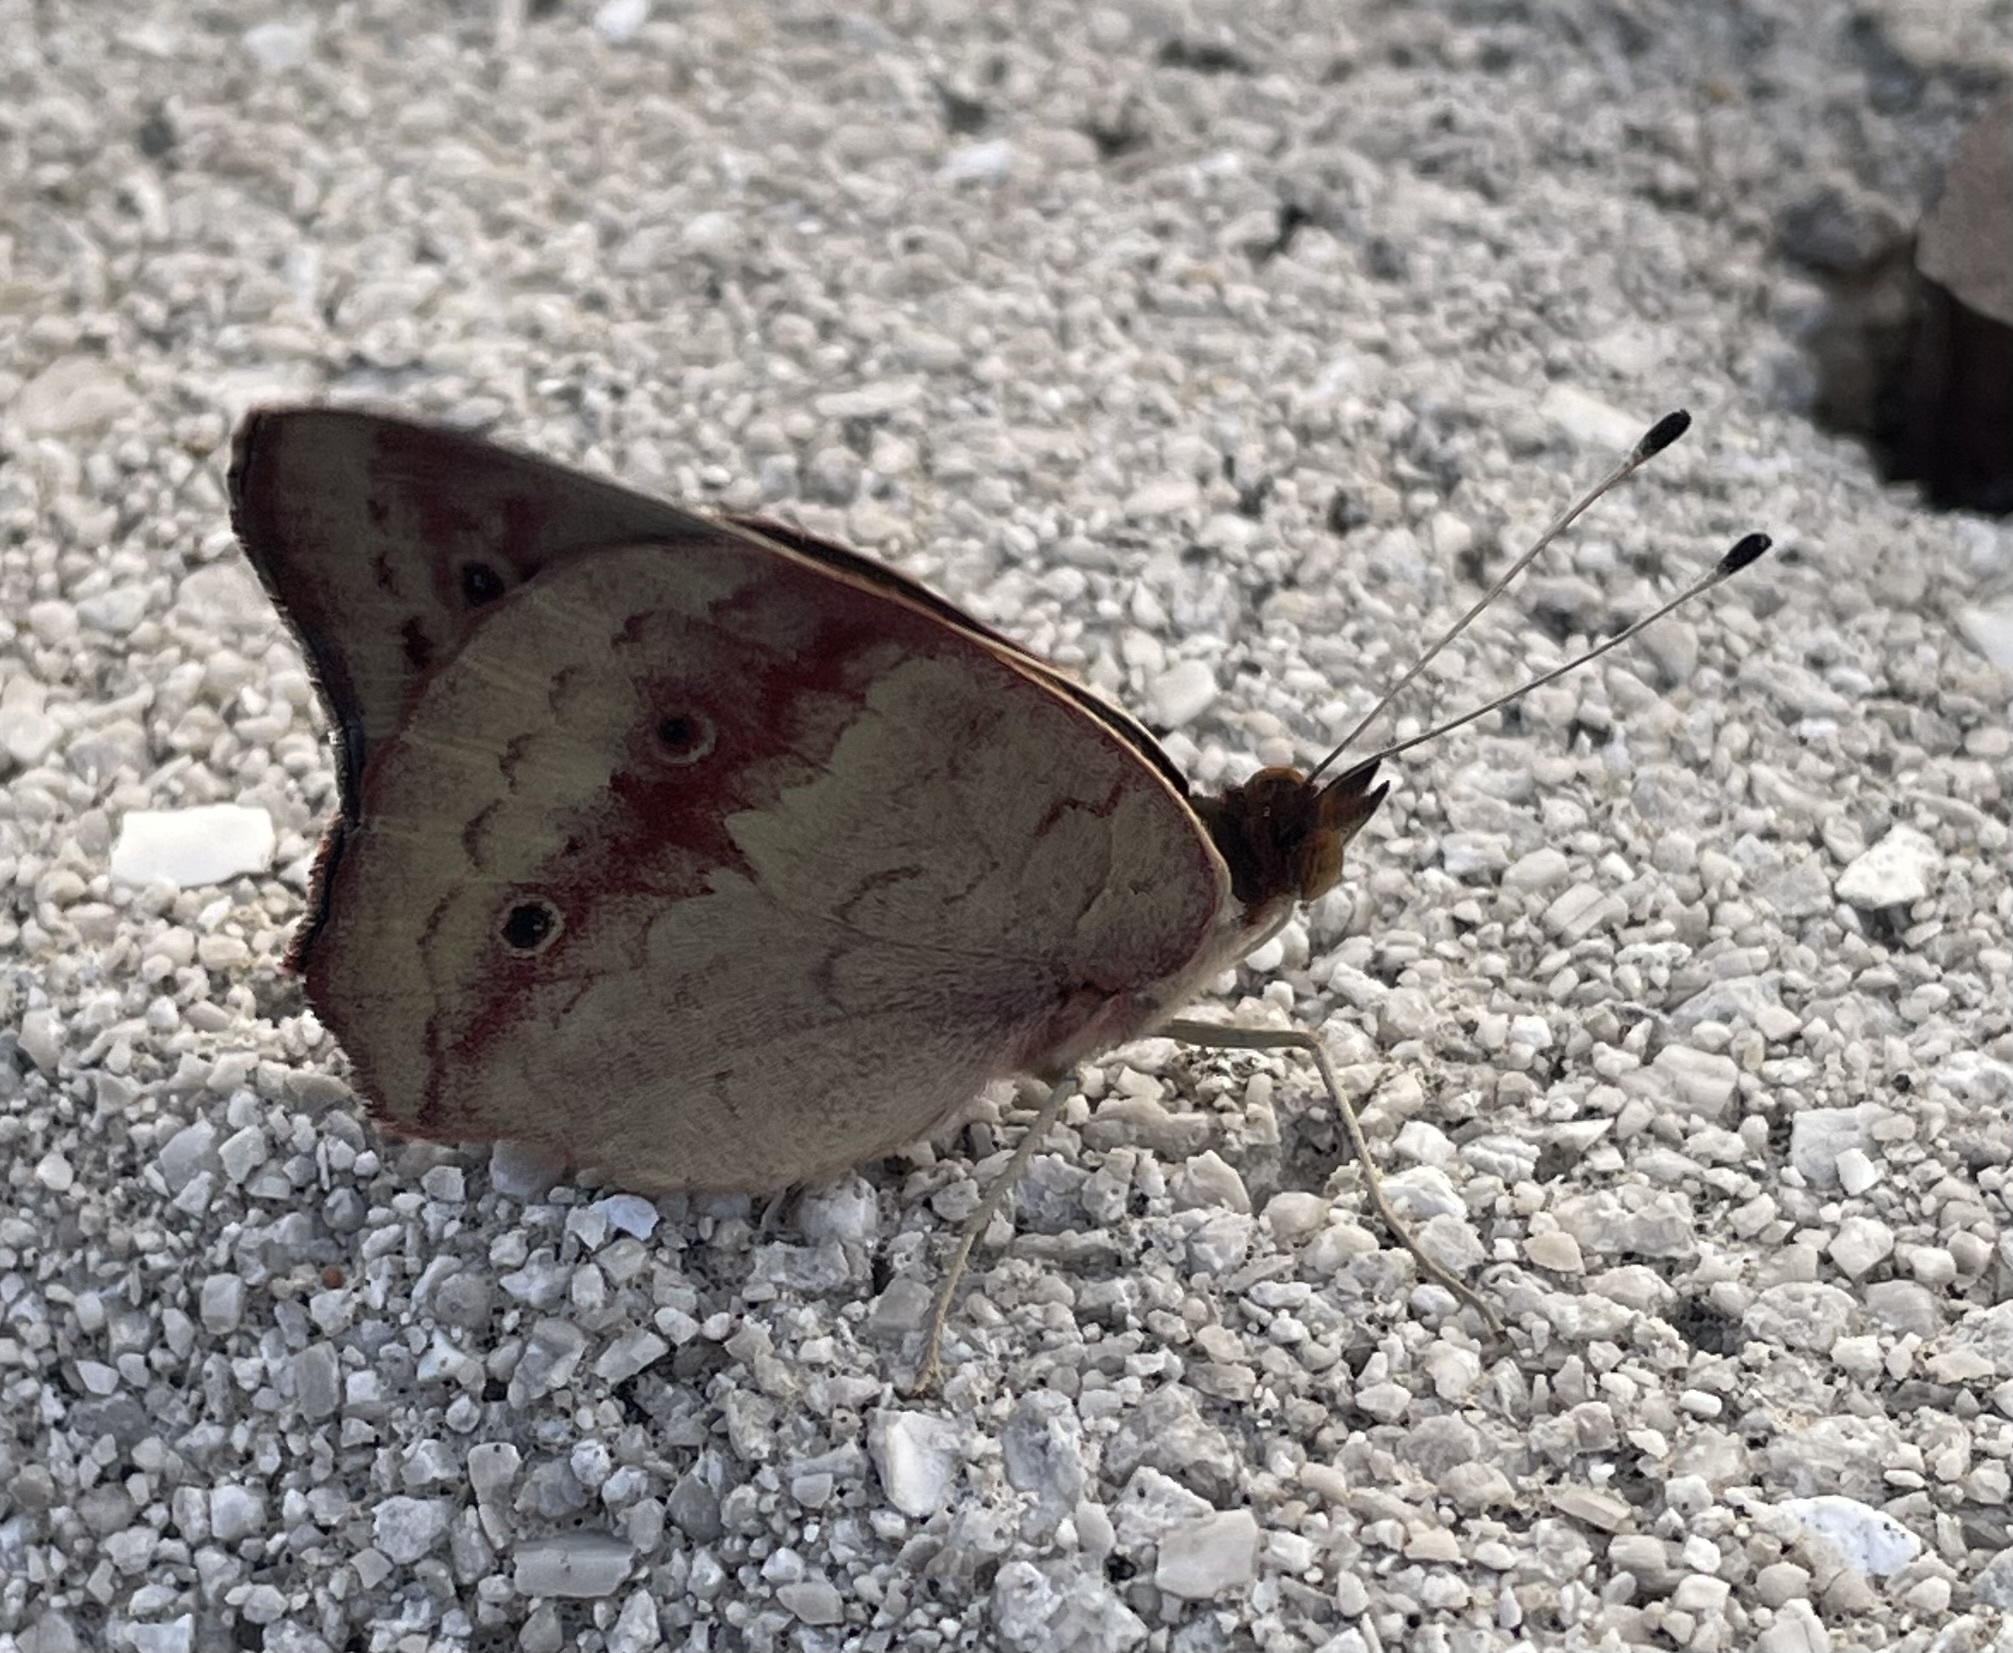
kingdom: Animalia
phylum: Arthropoda
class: Insecta
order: Lepidoptera
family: Nymphalidae
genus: Junonia
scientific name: Junonia coenia
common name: Common buckeye
